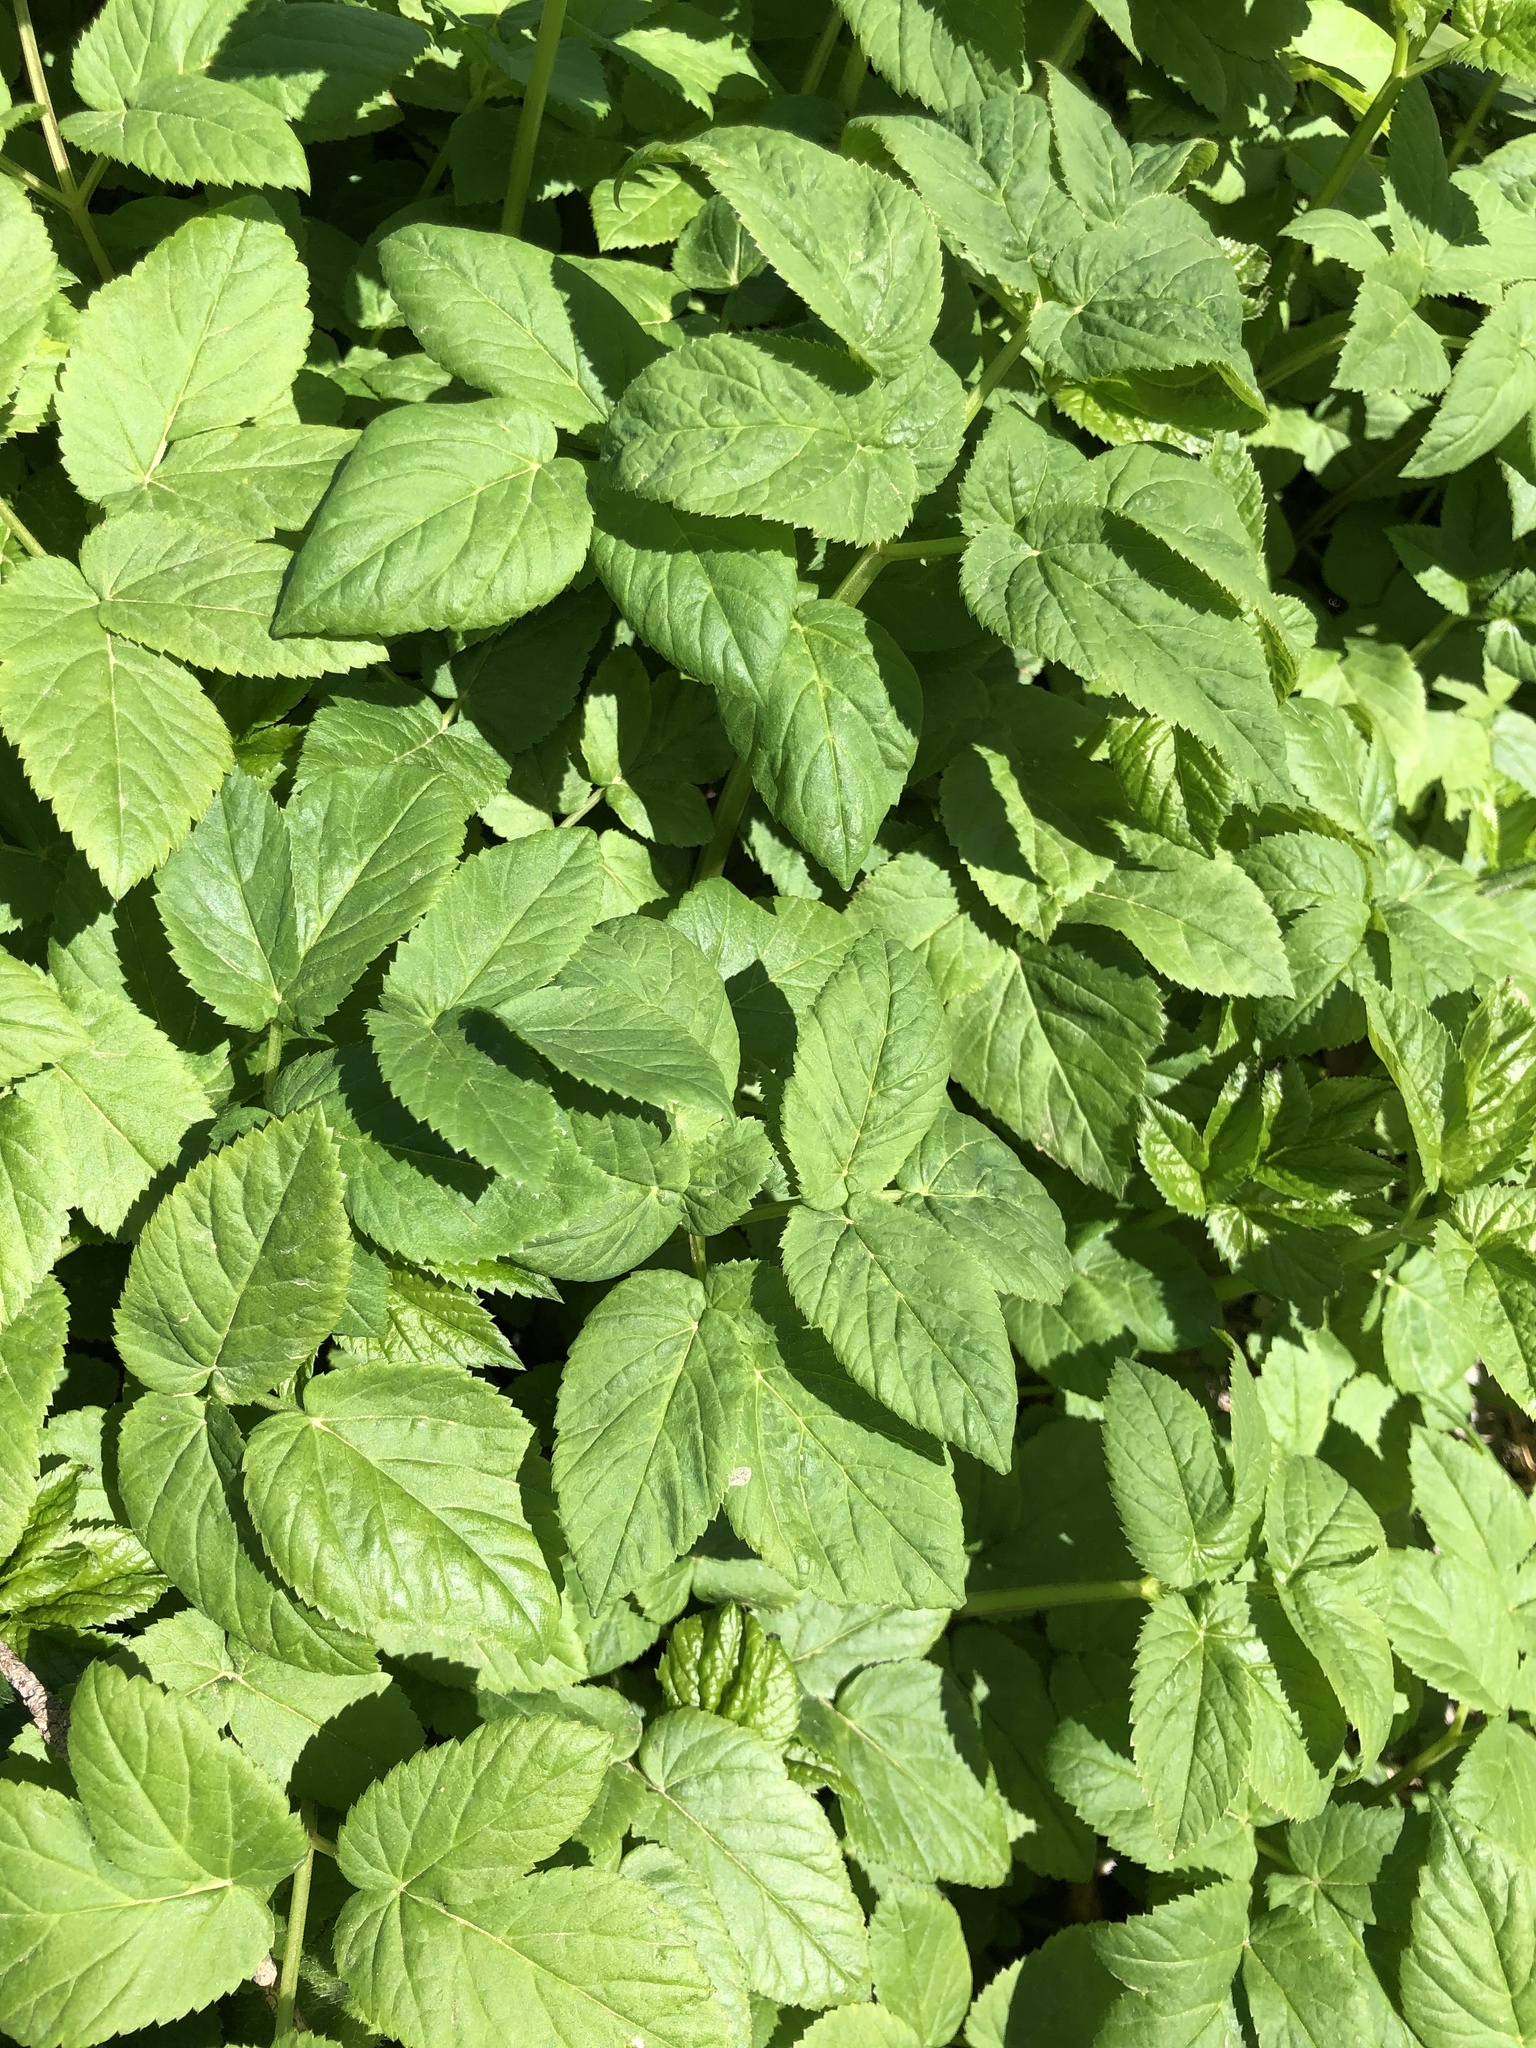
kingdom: Plantae
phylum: Tracheophyta
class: Magnoliopsida
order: Apiales
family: Apiaceae
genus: Aegopodium
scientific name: Aegopodium podagraria
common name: Ground-elder
